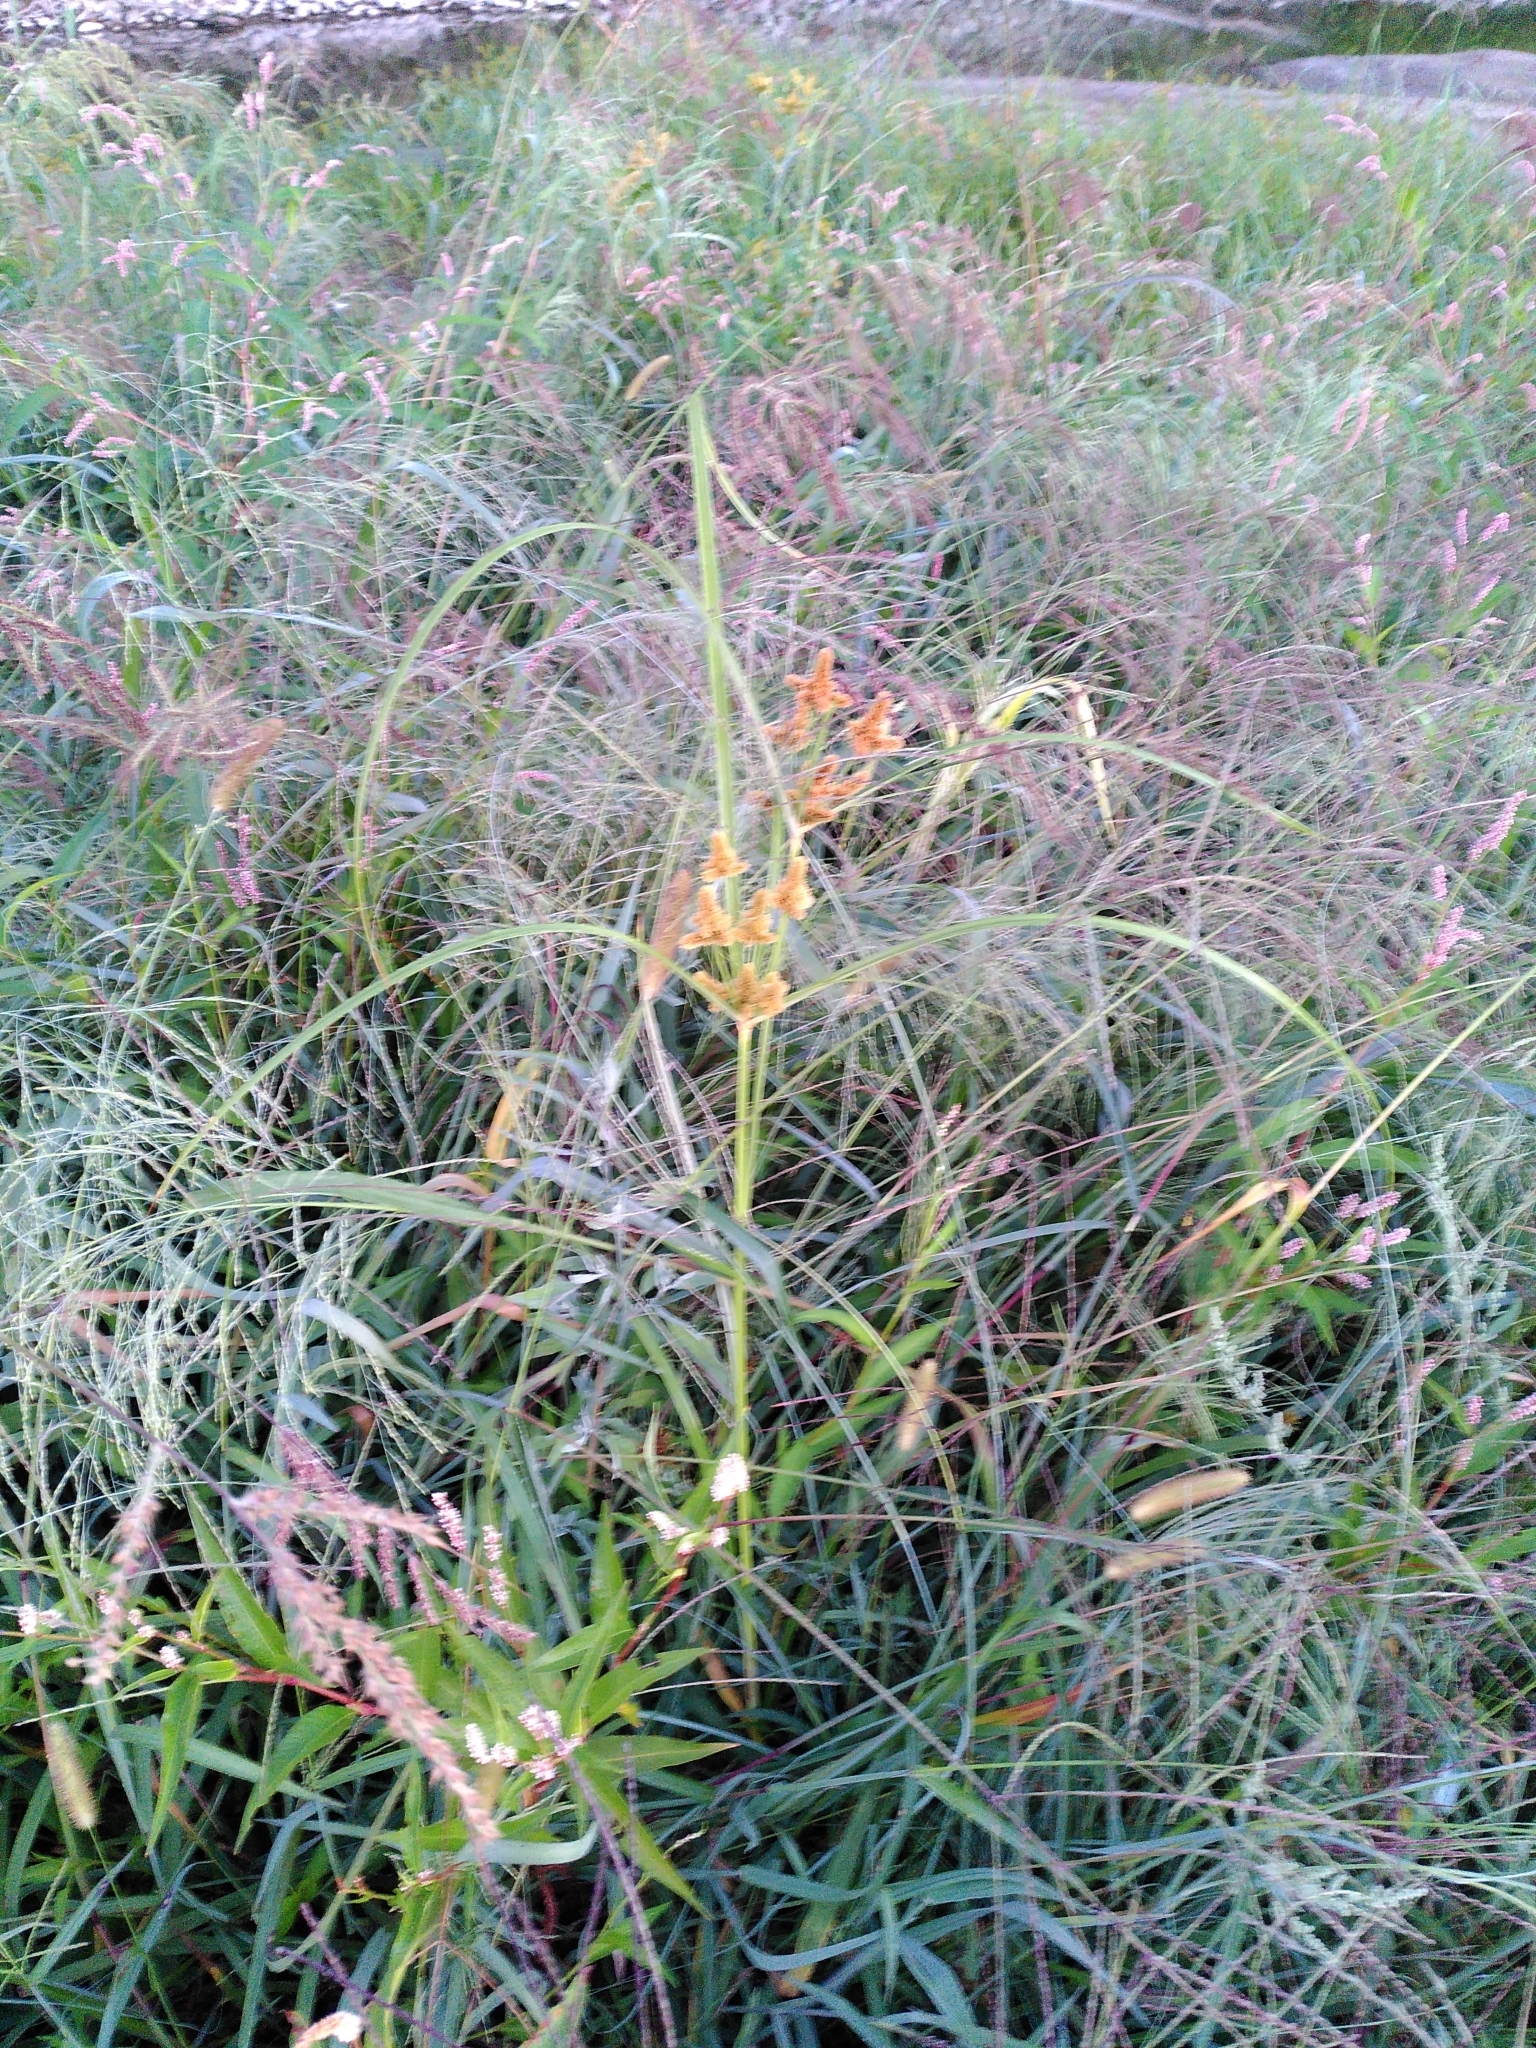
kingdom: Plantae
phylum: Tracheophyta
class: Liliopsida
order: Poales
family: Cyperaceae
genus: Cyperus
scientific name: Cyperus glomeratus
